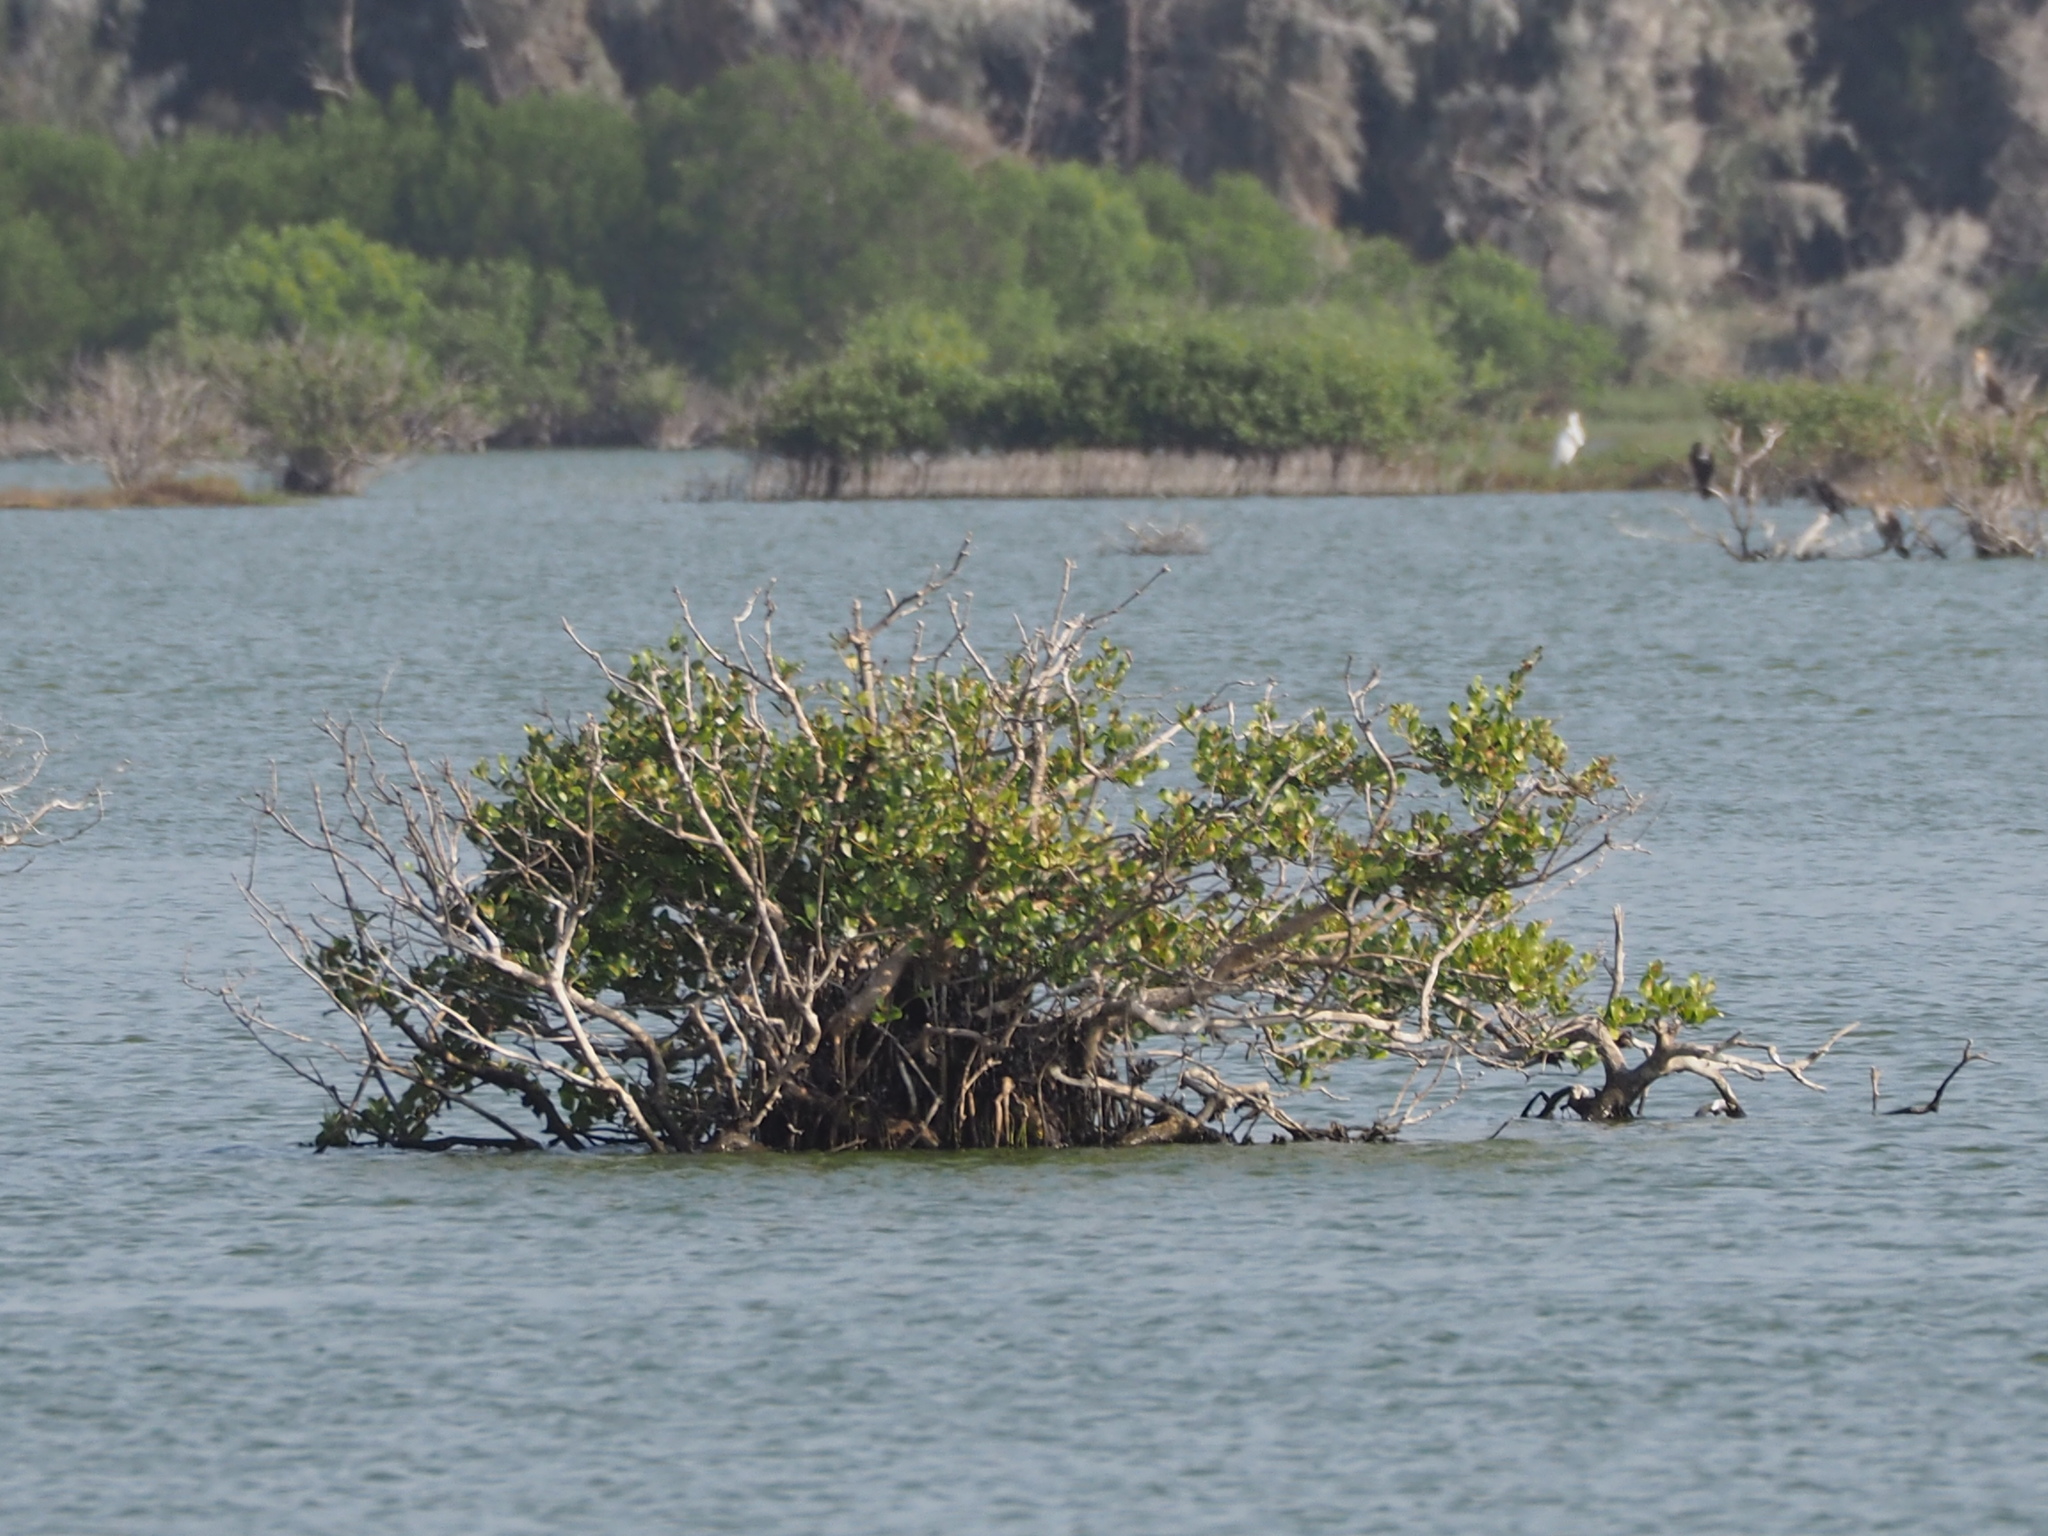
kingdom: Plantae
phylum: Tracheophyta
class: Magnoliopsida
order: Lamiales
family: Acanthaceae
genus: Avicennia
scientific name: Avicennia marina
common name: Gray mangrove
